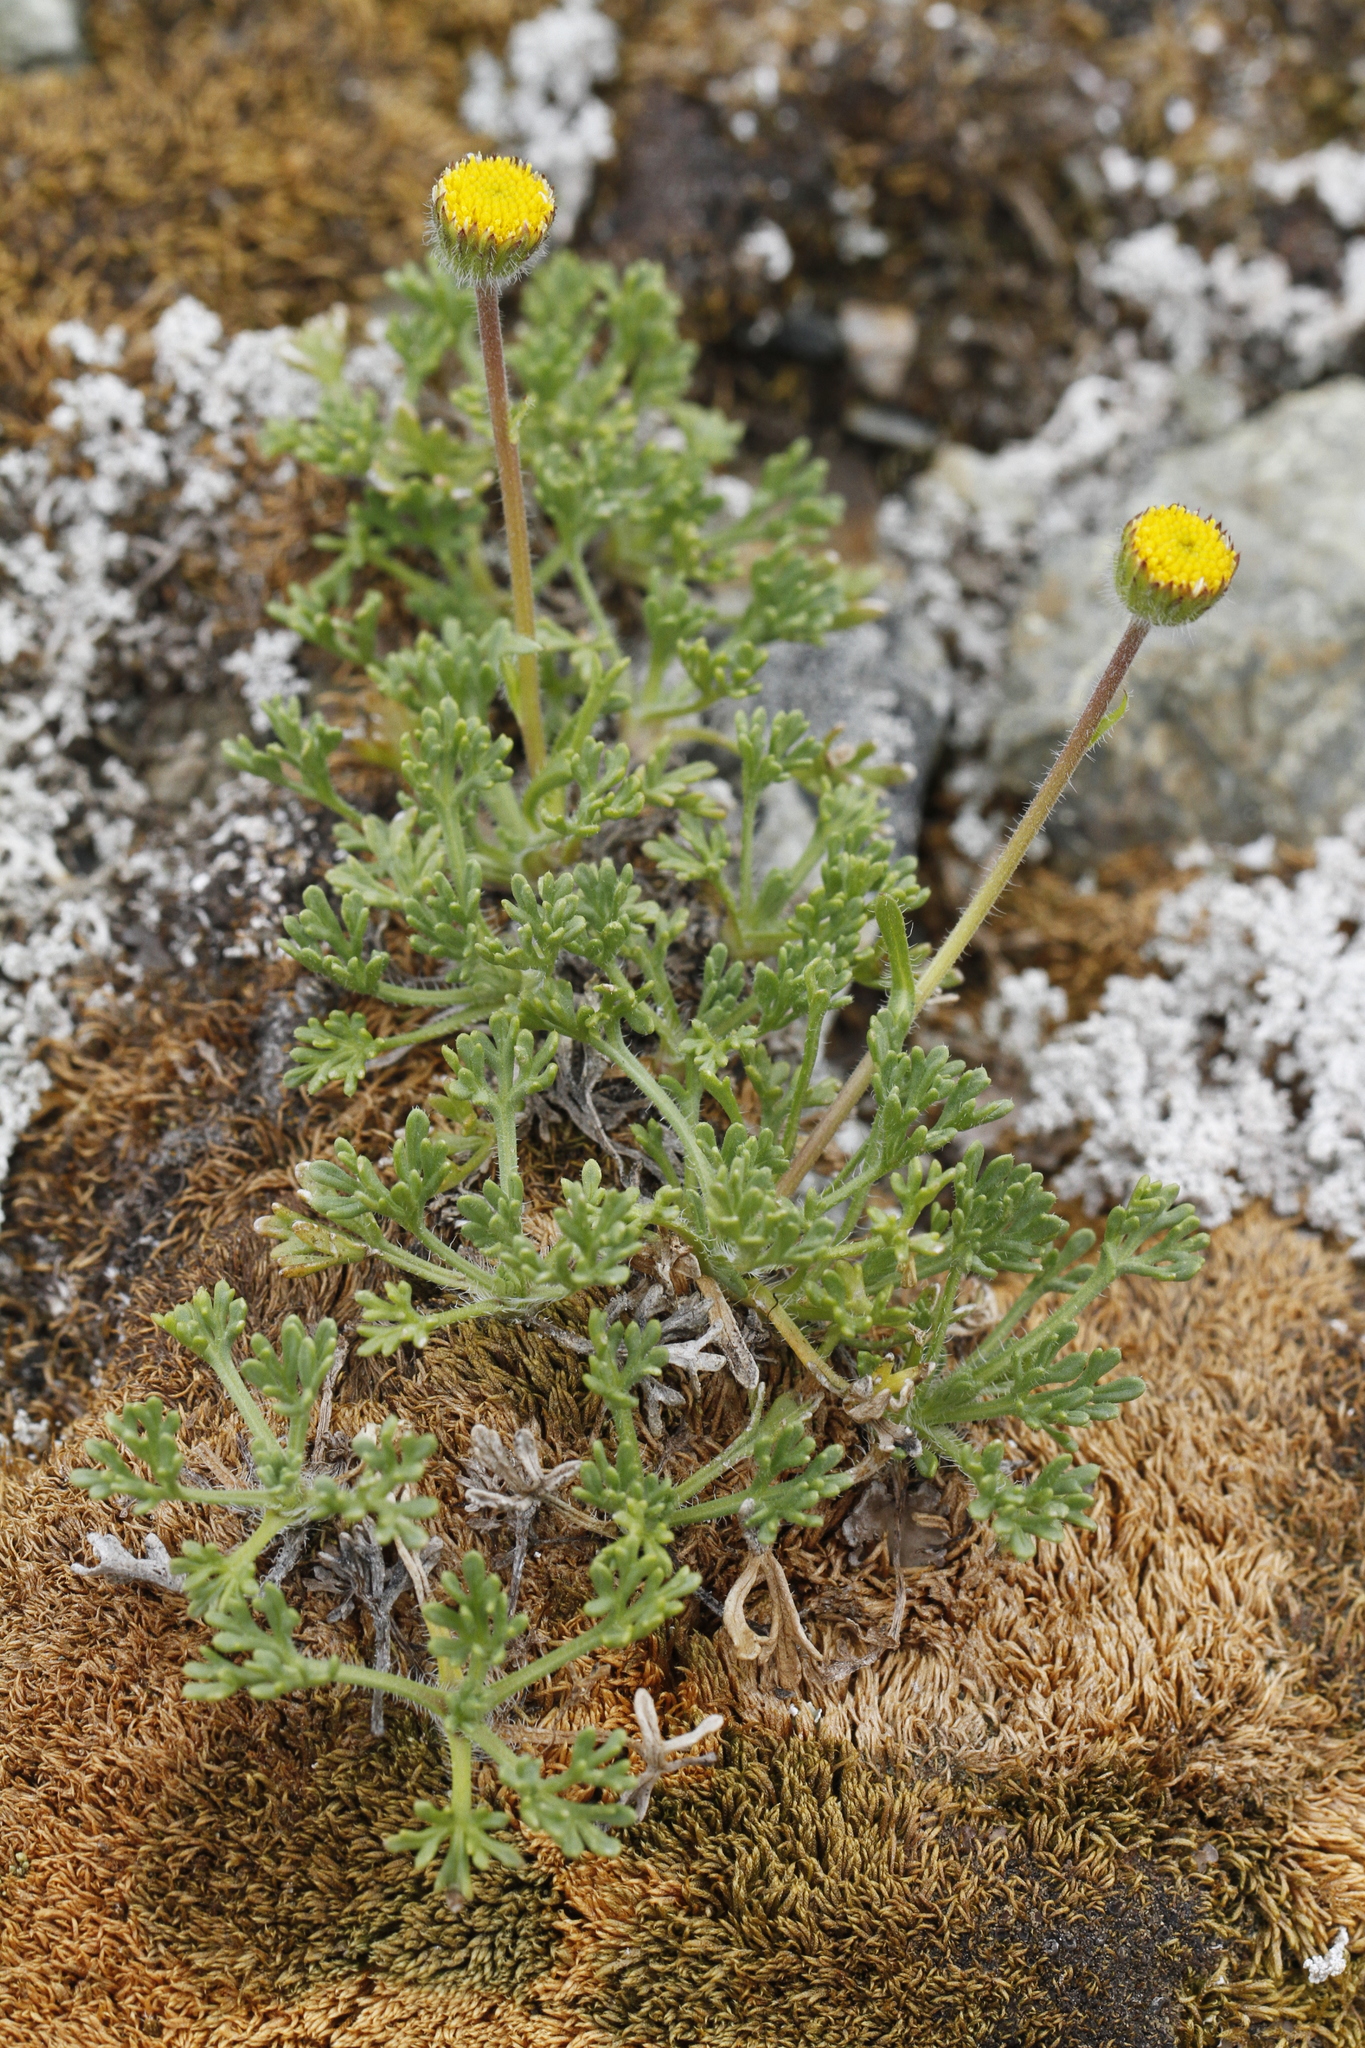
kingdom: Plantae
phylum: Tracheophyta
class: Magnoliopsida
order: Asterales
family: Asteraceae
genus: Erigeron
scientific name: Erigeron compositus
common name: Dwarf mountain fleabane
